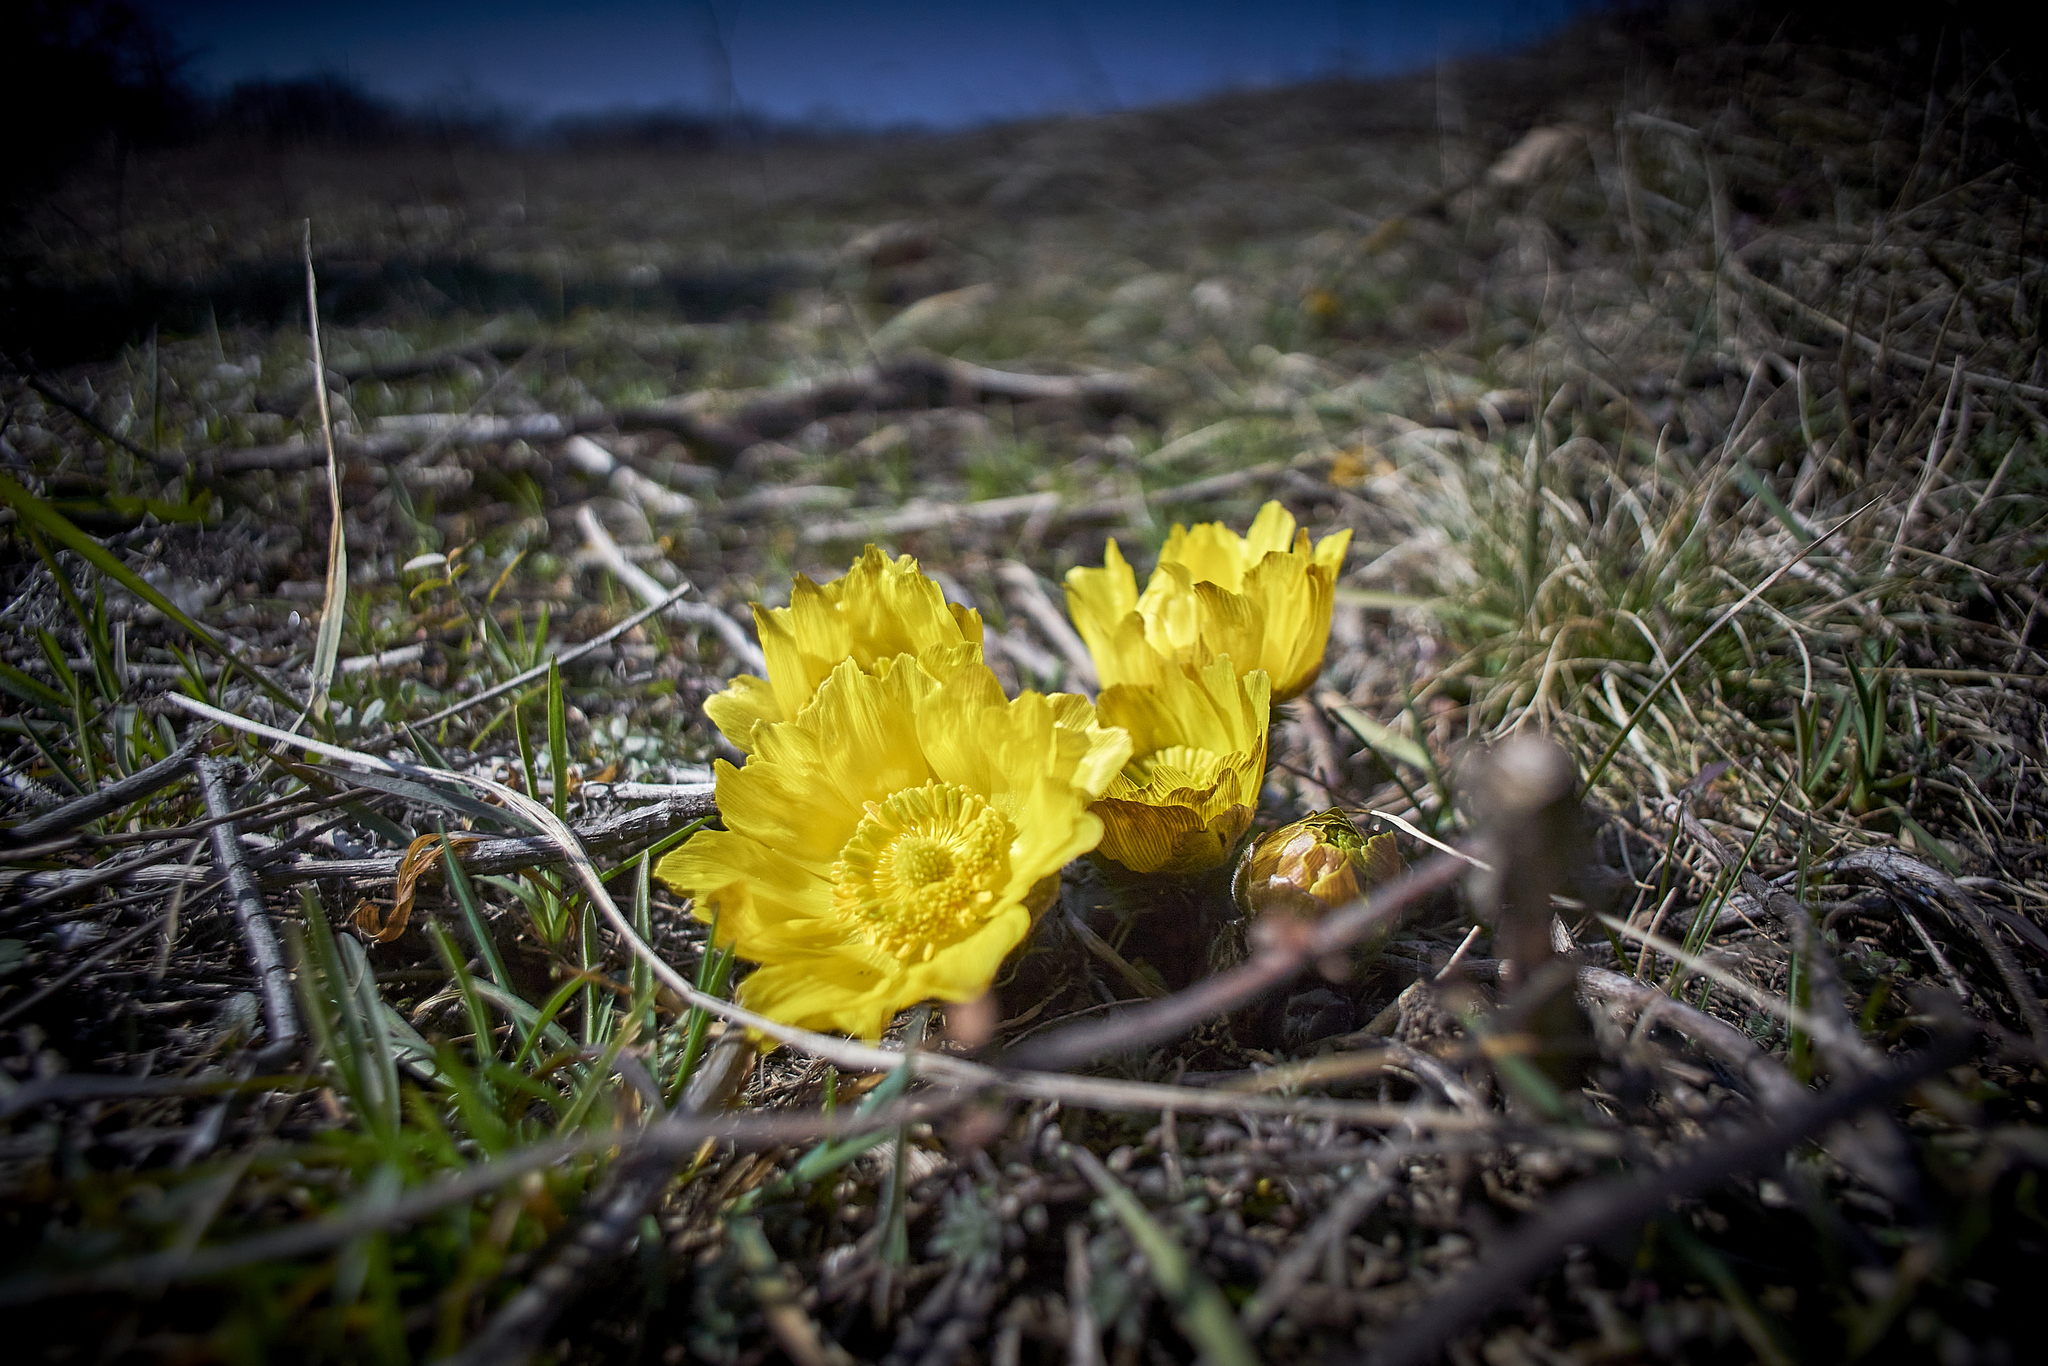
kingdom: Plantae
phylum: Tracheophyta
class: Magnoliopsida
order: Ranunculales
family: Ranunculaceae
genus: Adonis
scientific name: Adonis vernalis
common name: Yellow pheasants-eye
